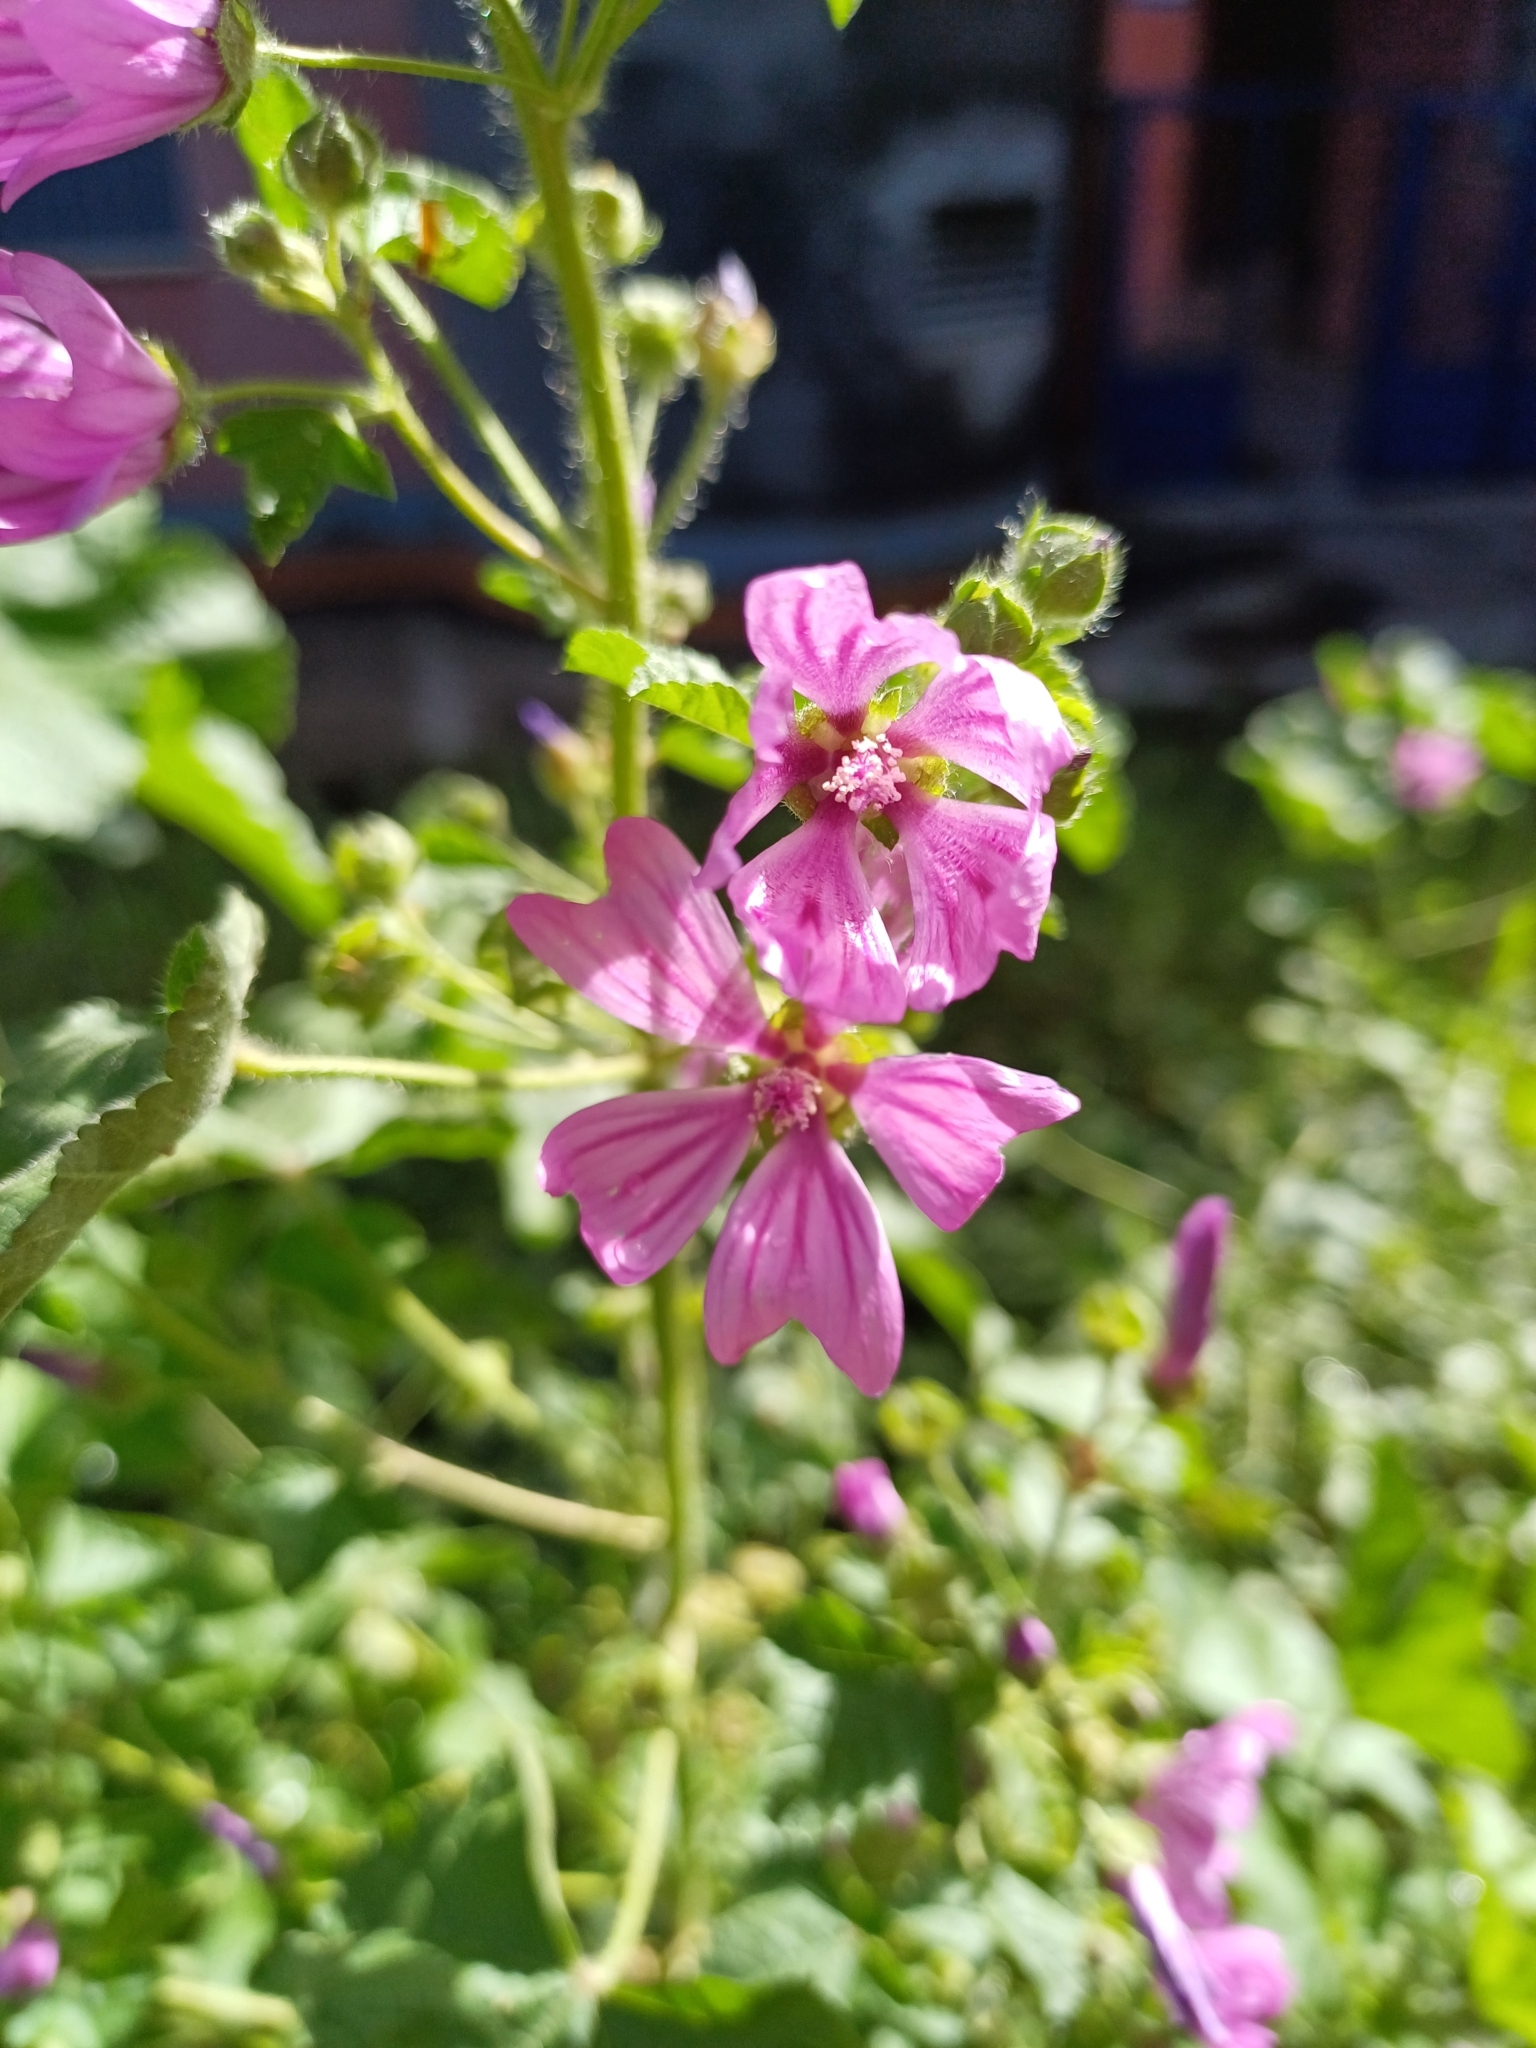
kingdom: Plantae
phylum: Tracheophyta
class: Magnoliopsida
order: Malvales
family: Malvaceae
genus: Malva
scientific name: Malva sylvestris
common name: Common mallow
